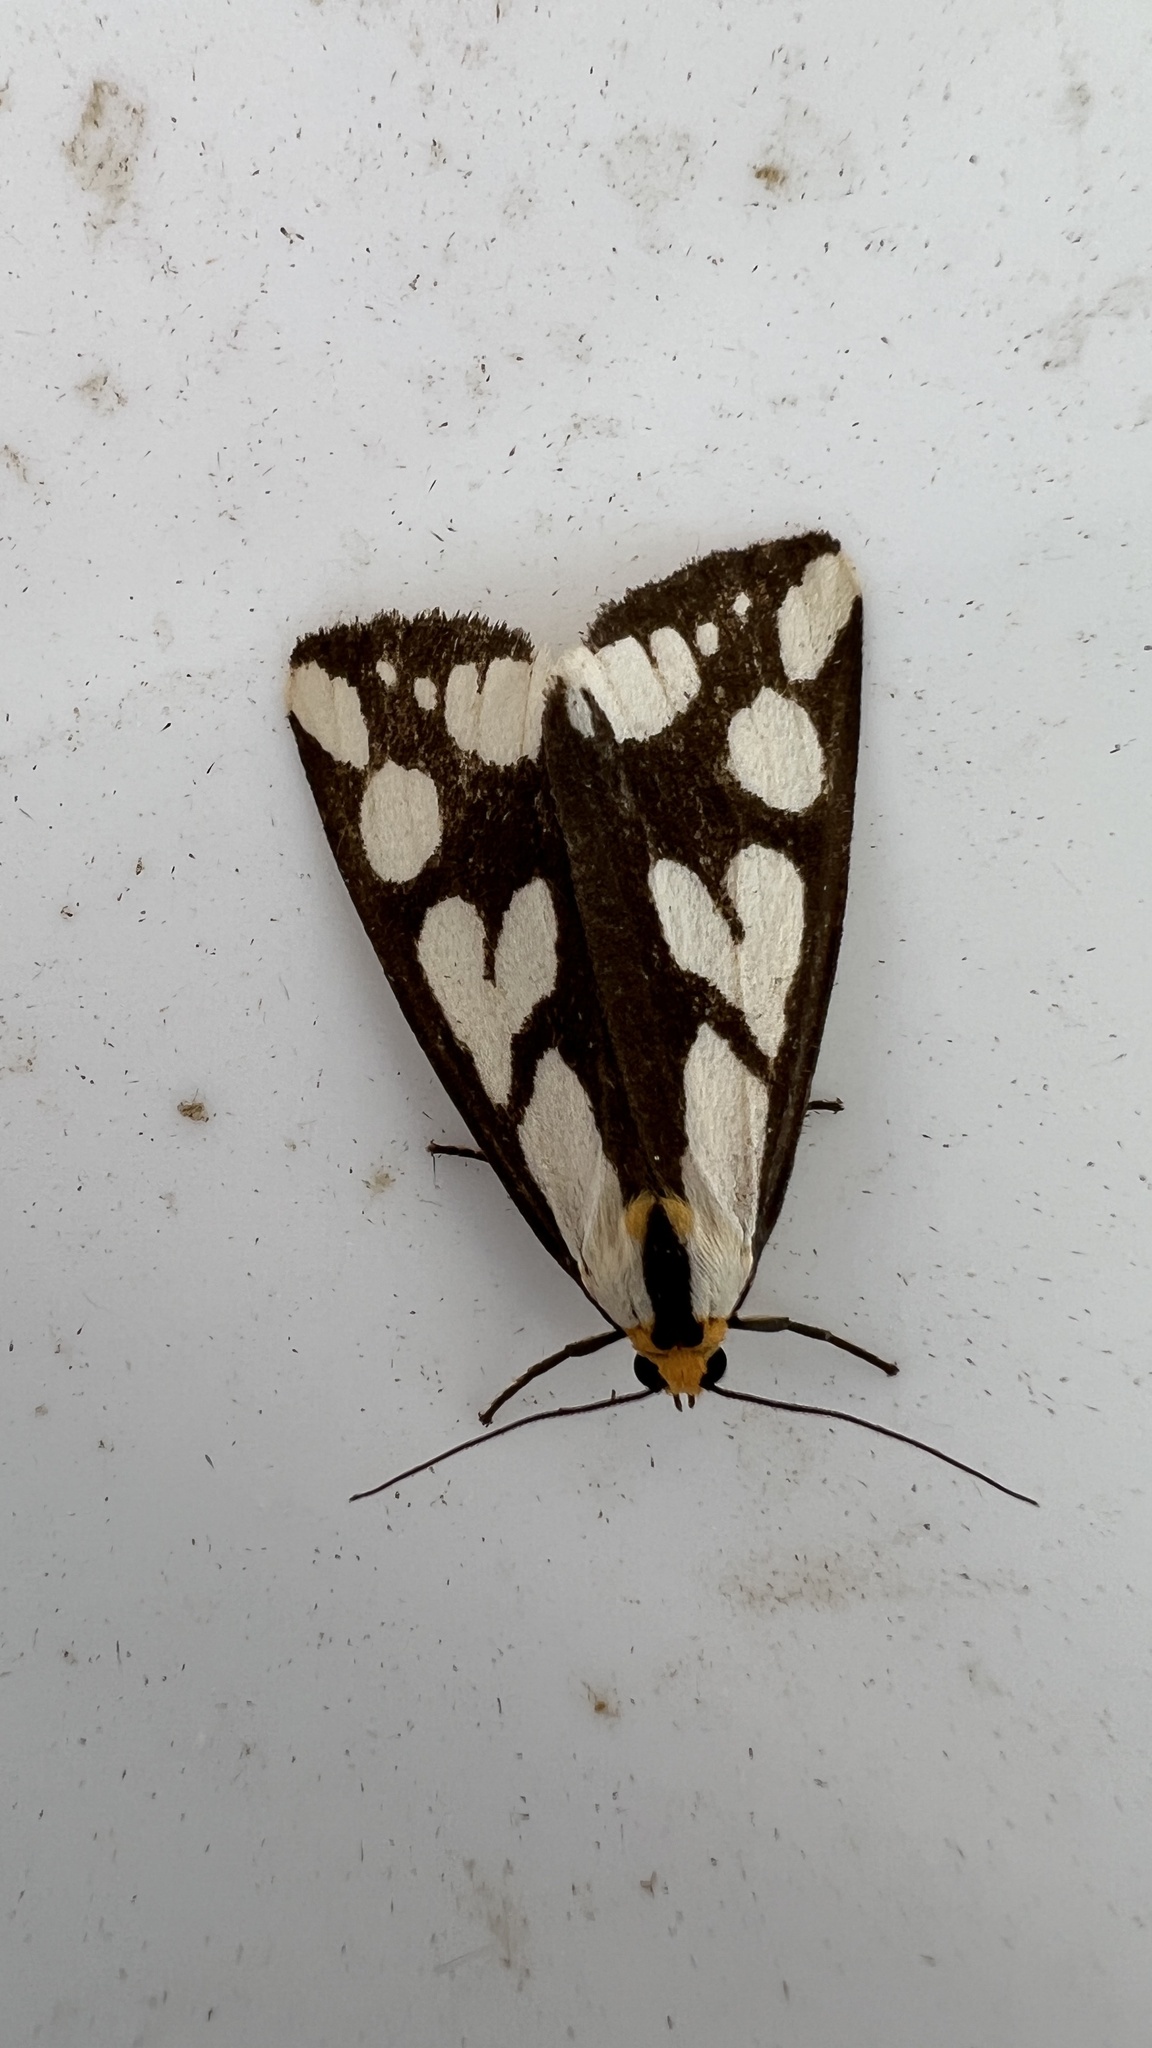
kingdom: Animalia
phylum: Arthropoda
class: Insecta
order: Lepidoptera
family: Erebidae
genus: Haploa
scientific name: Haploa confusa
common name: Confused haploa moth
